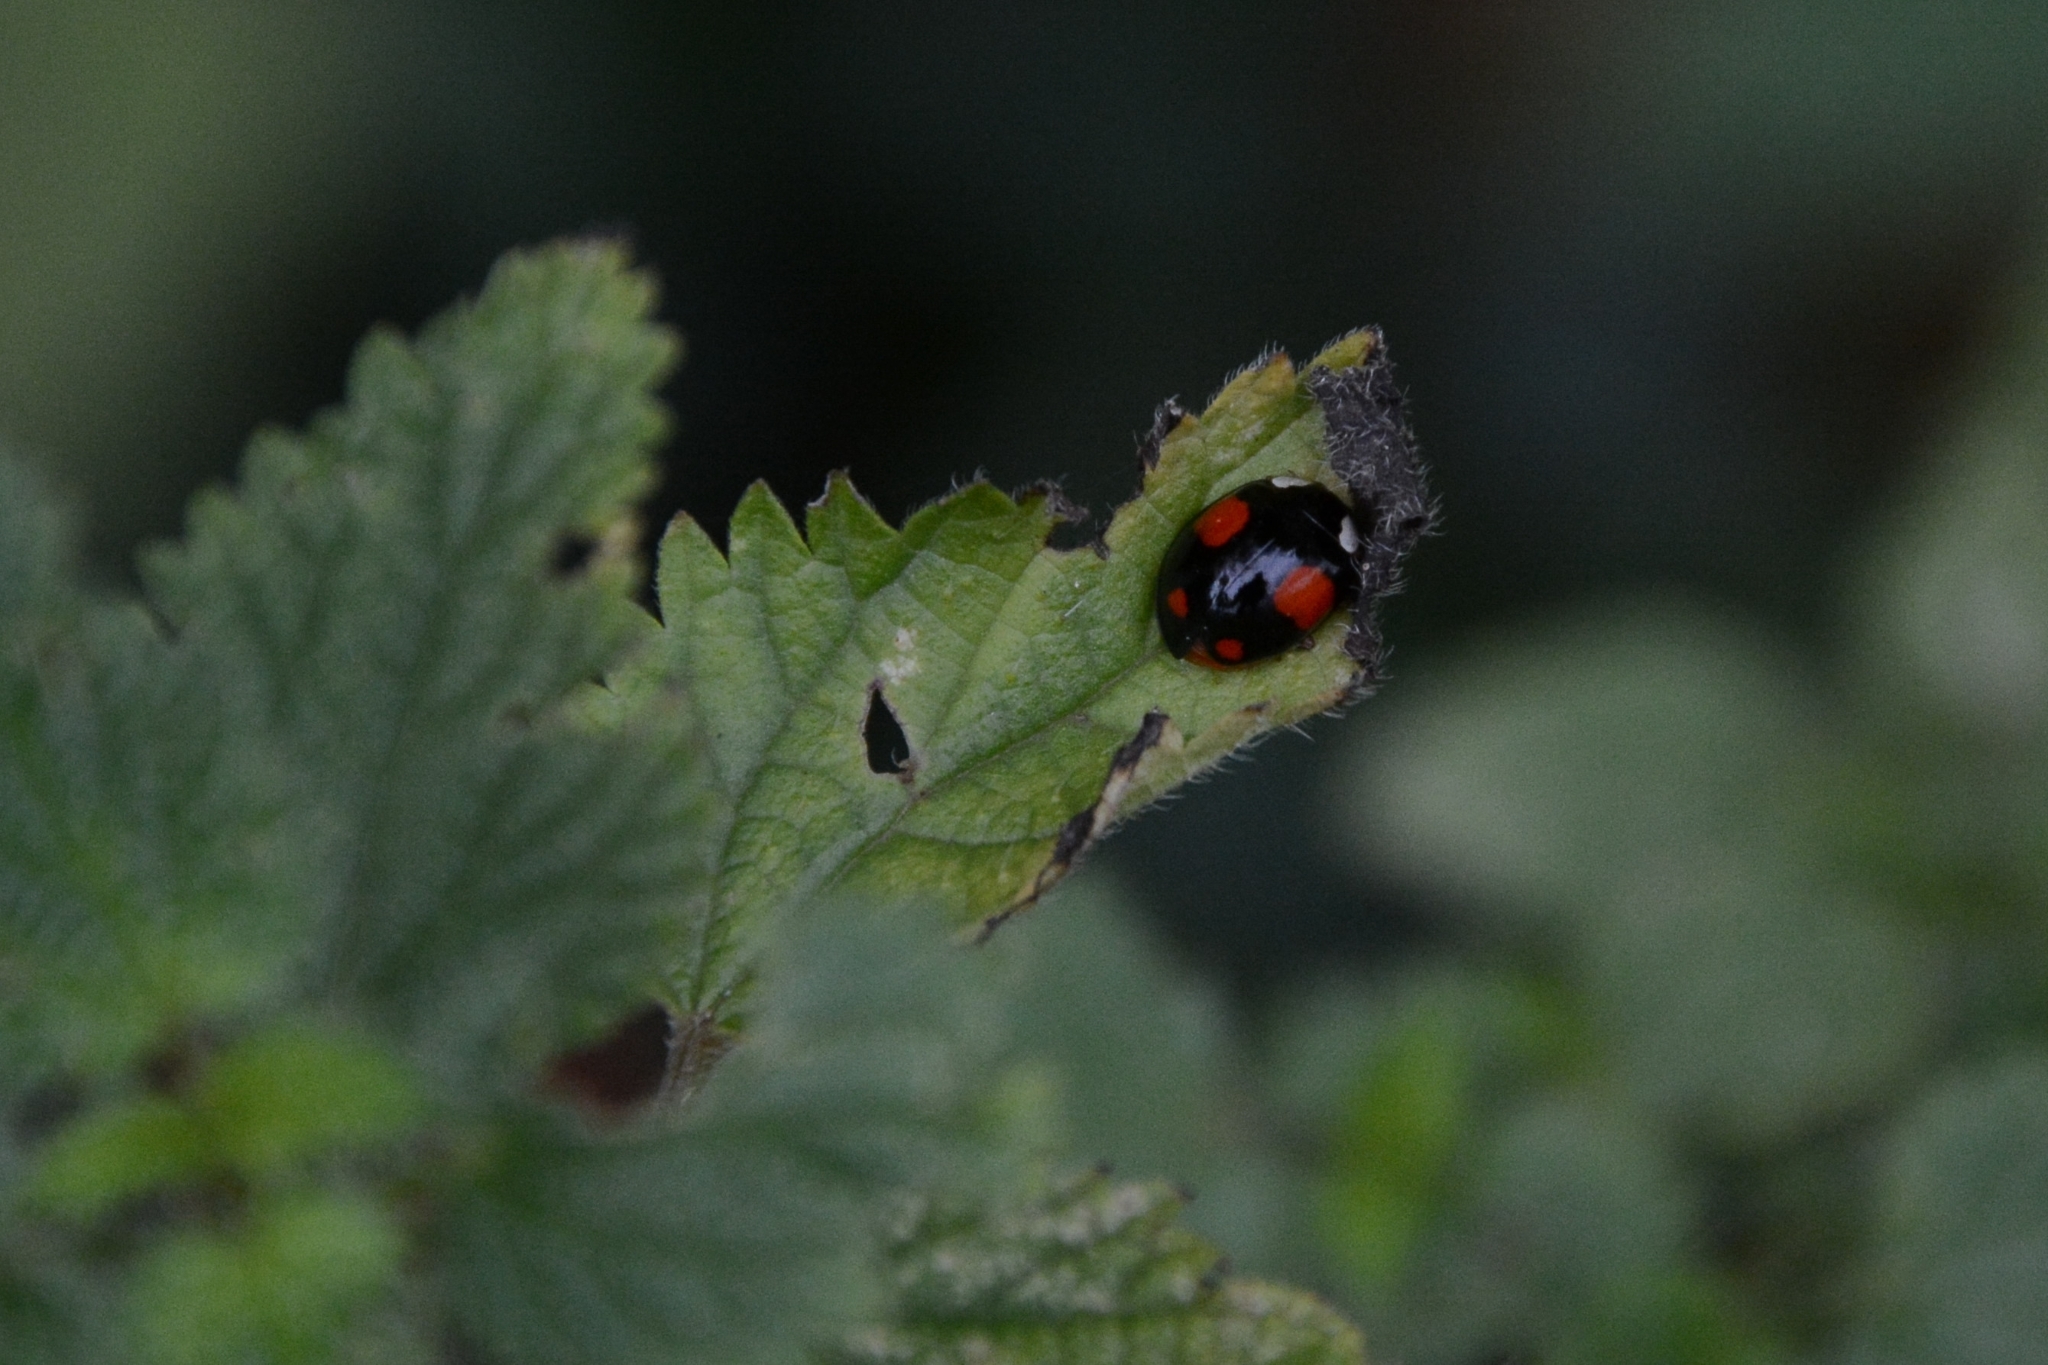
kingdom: Animalia
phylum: Arthropoda
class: Insecta
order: Coleoptera
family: Coccinellidae
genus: Harmonia
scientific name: Harmonia axyridis
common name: Harlequin ladybird
